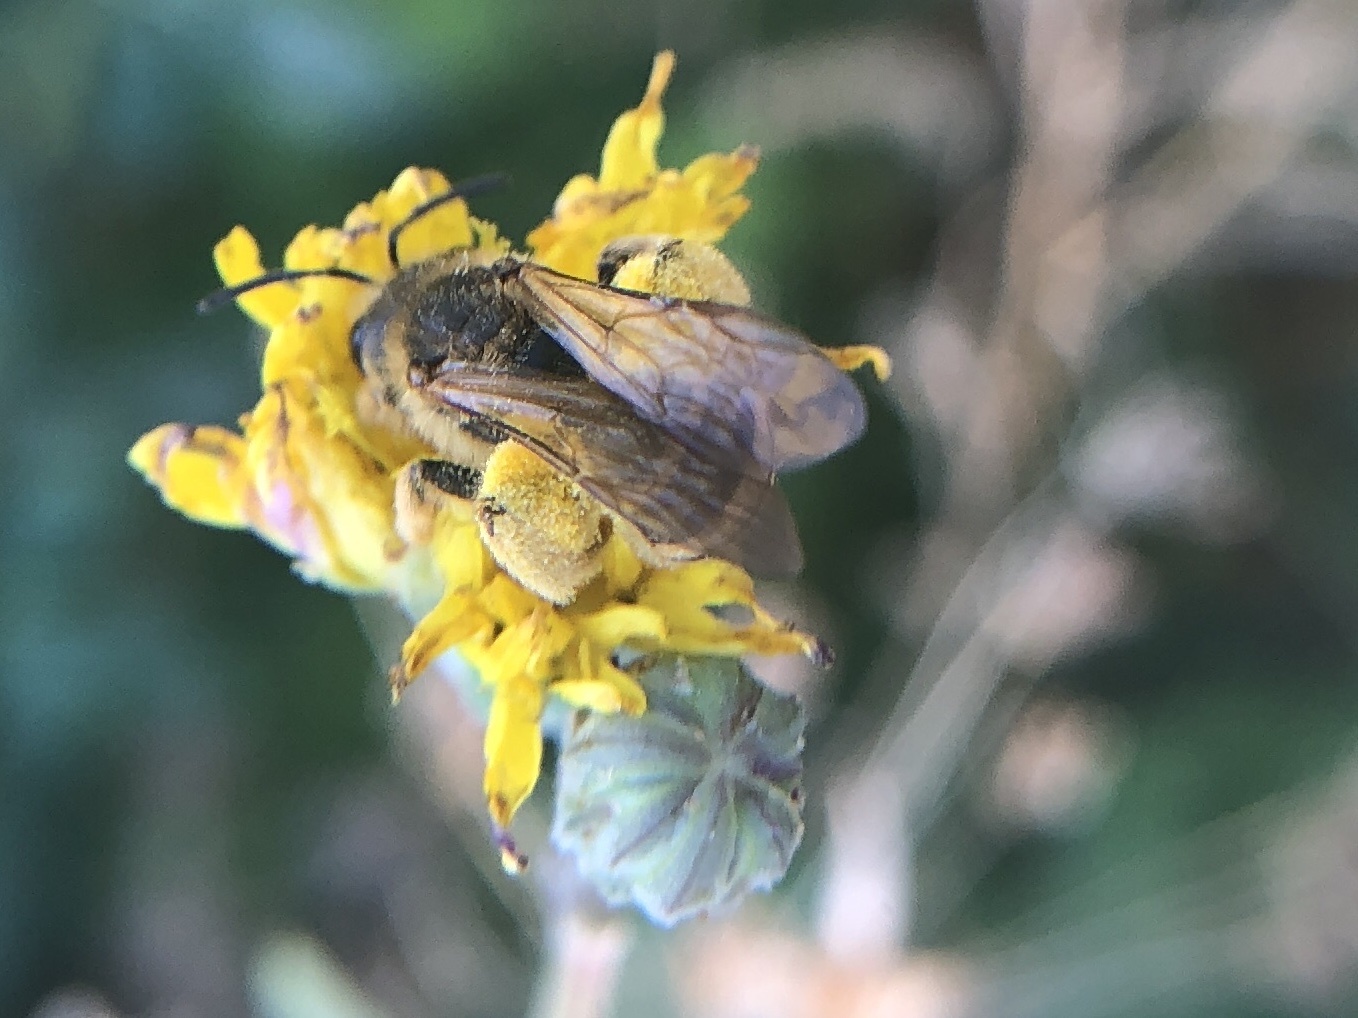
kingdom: Animalia
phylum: Arthropoda
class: Insecta
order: Hymenoptera
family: Halictidae
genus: Halictus
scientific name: Halictus scabiosae
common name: Great banded furrow bee
